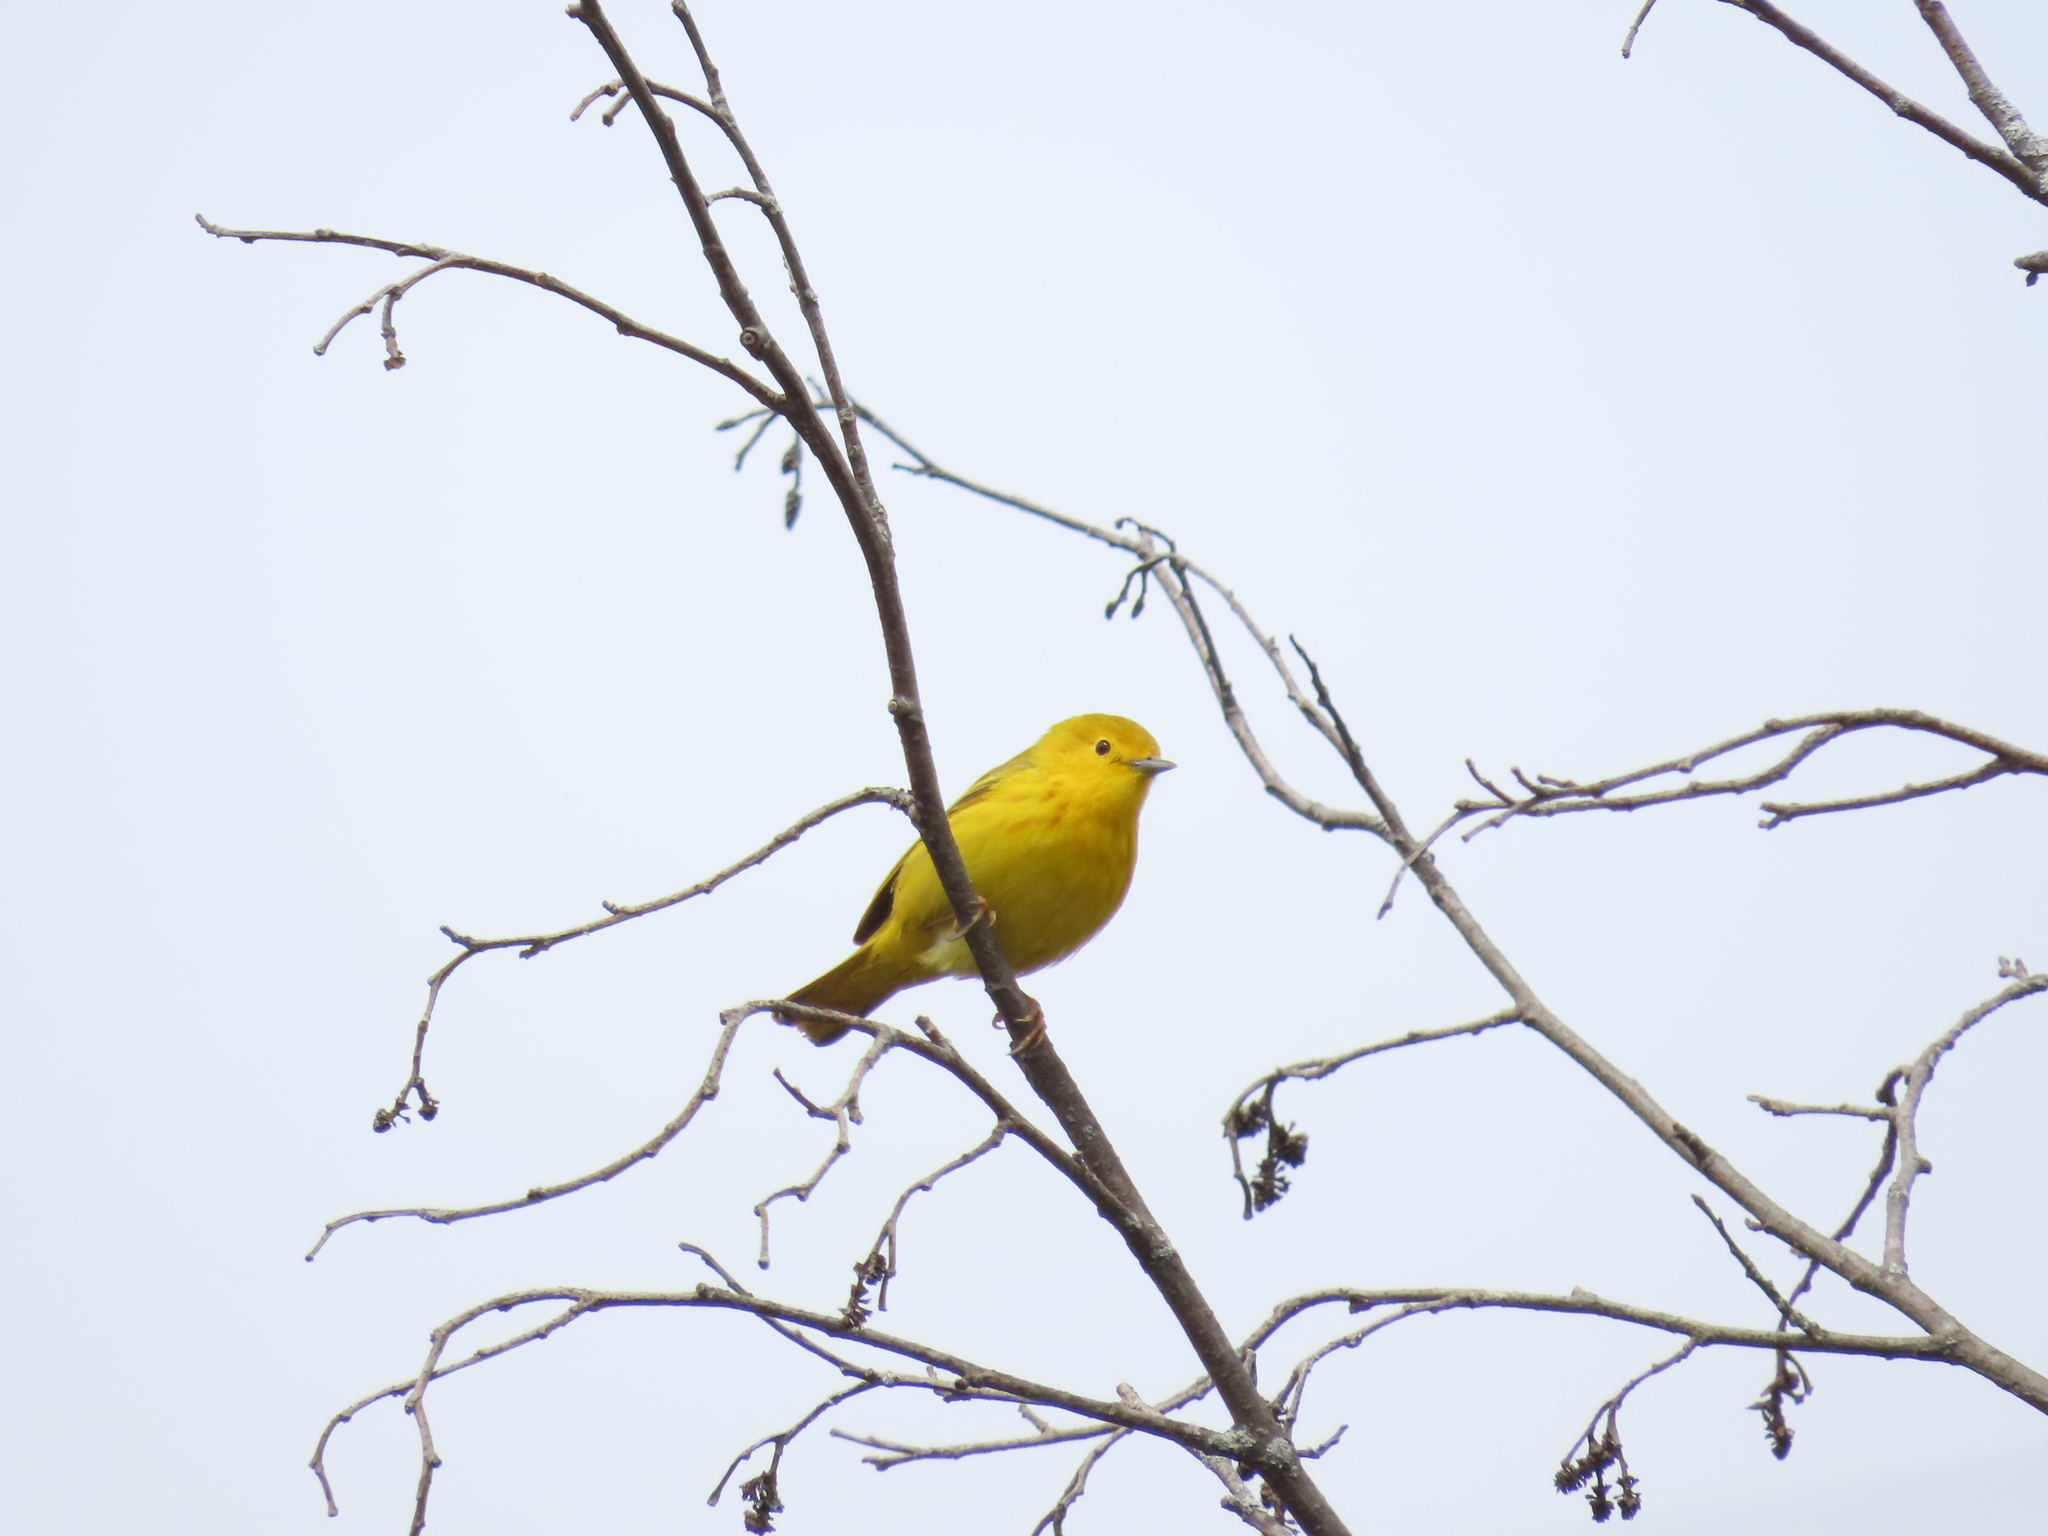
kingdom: Animalia
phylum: Chordata
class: Aves
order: Passeriformes
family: Parulidae
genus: Setophaga
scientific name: Setophaga petechia
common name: Yellow warbler
